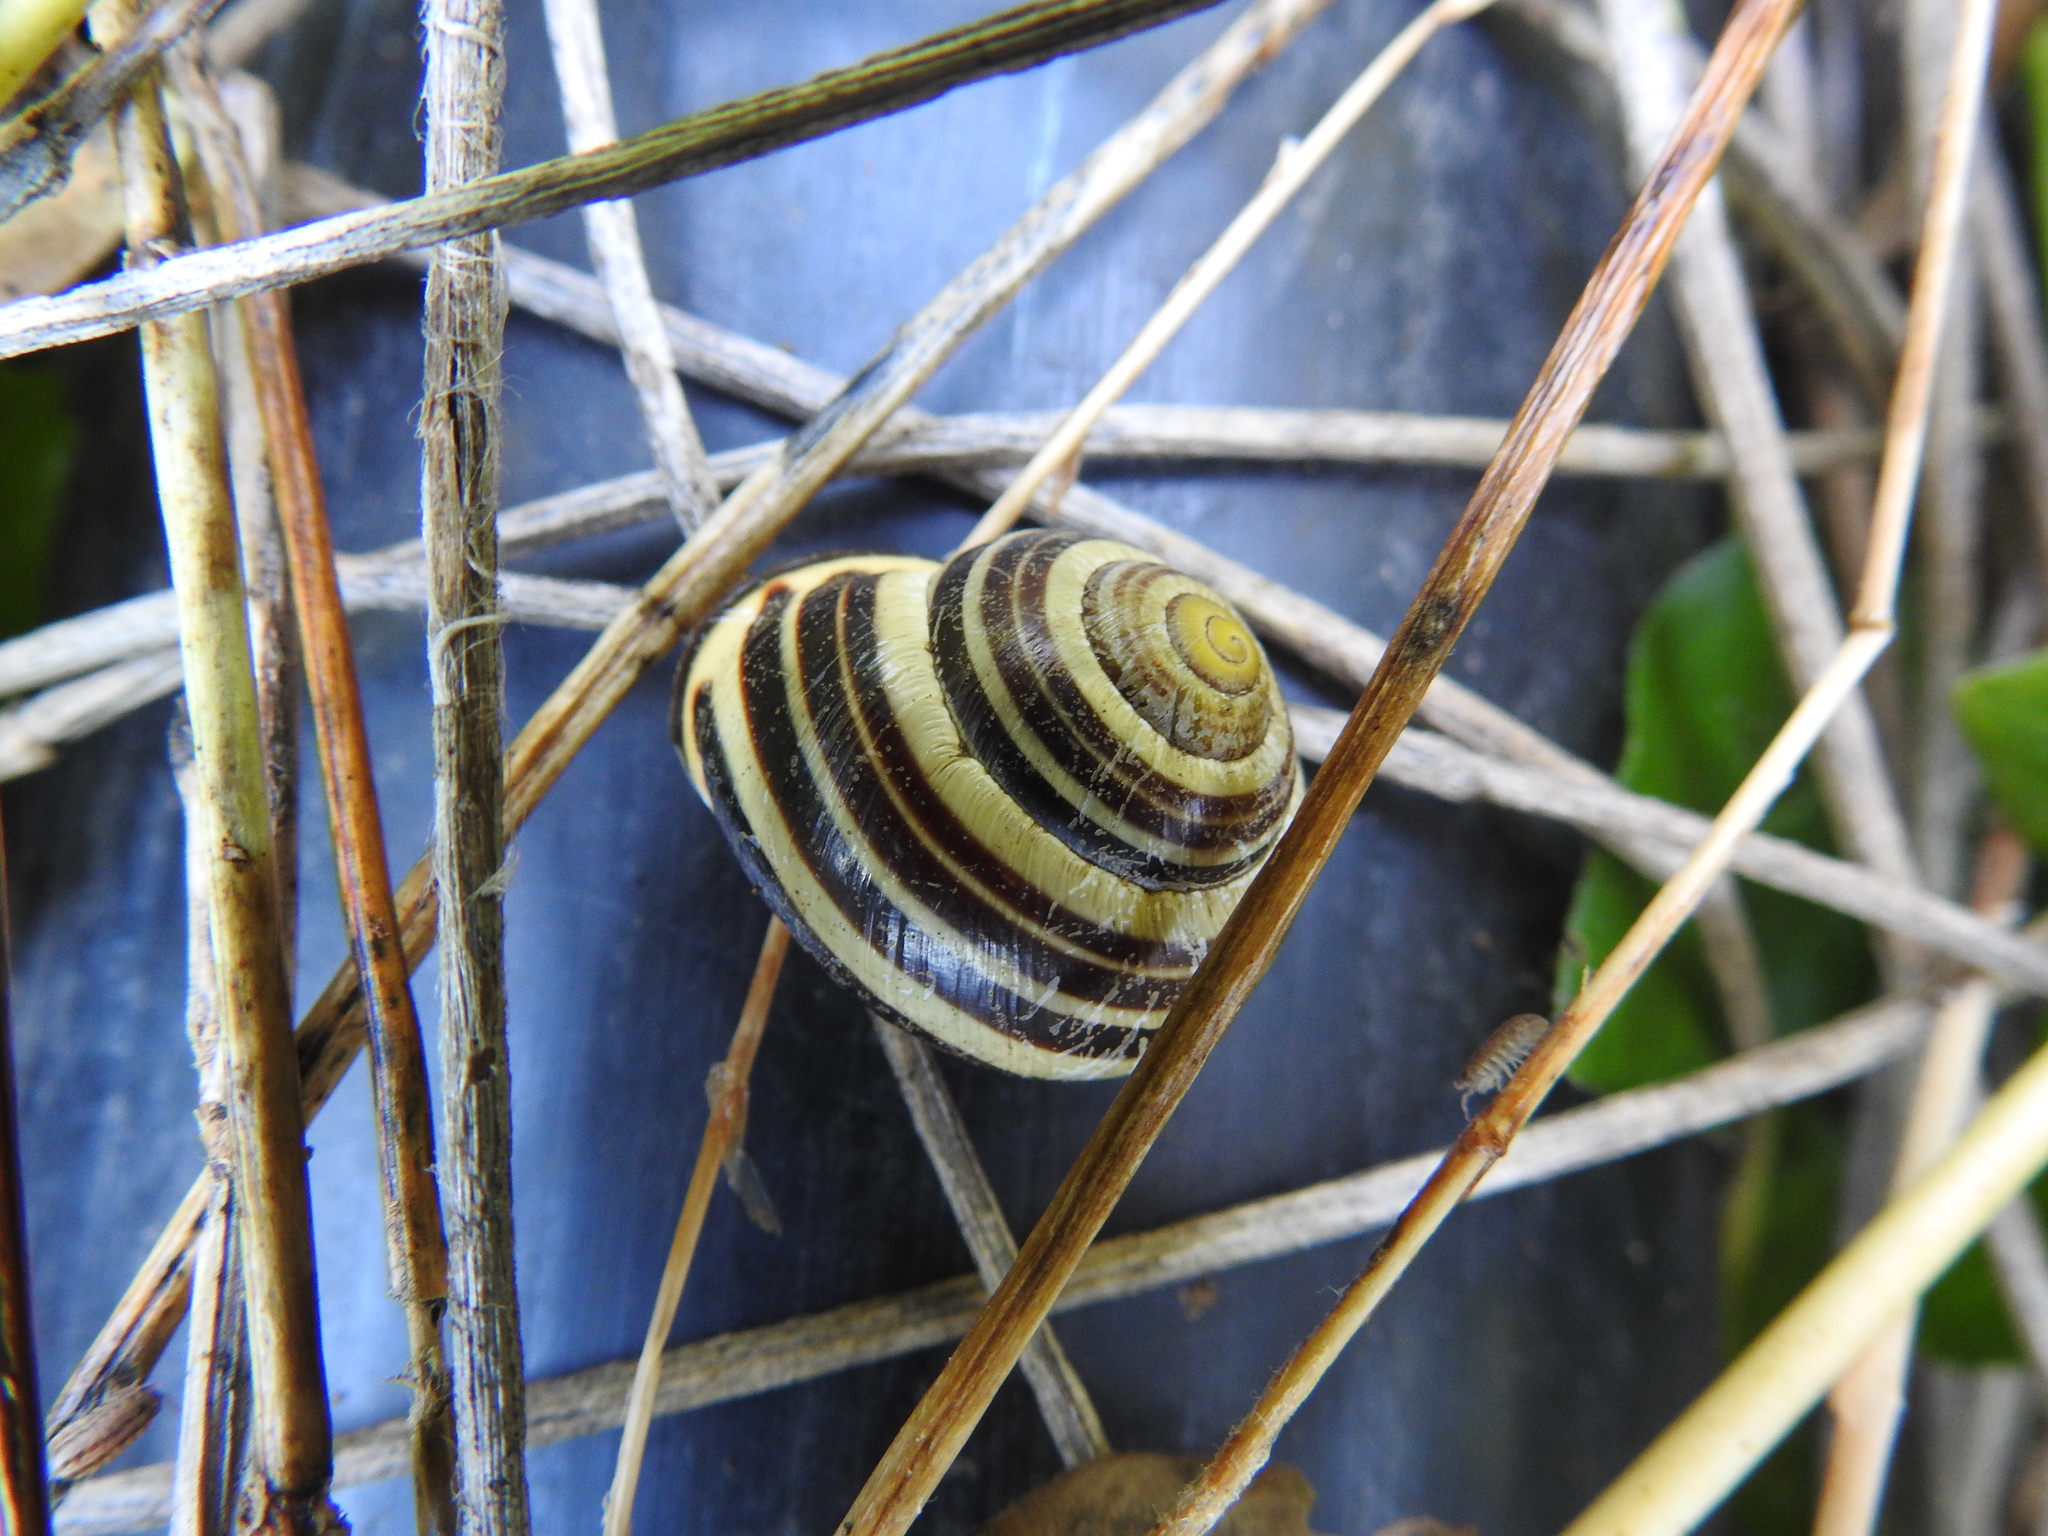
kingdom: Animalia
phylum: Mollusca
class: Gastropoda
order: Stylommatophora
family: Helicidae
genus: Cepaea
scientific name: Cepaea nemoralis
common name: Grovesnail
